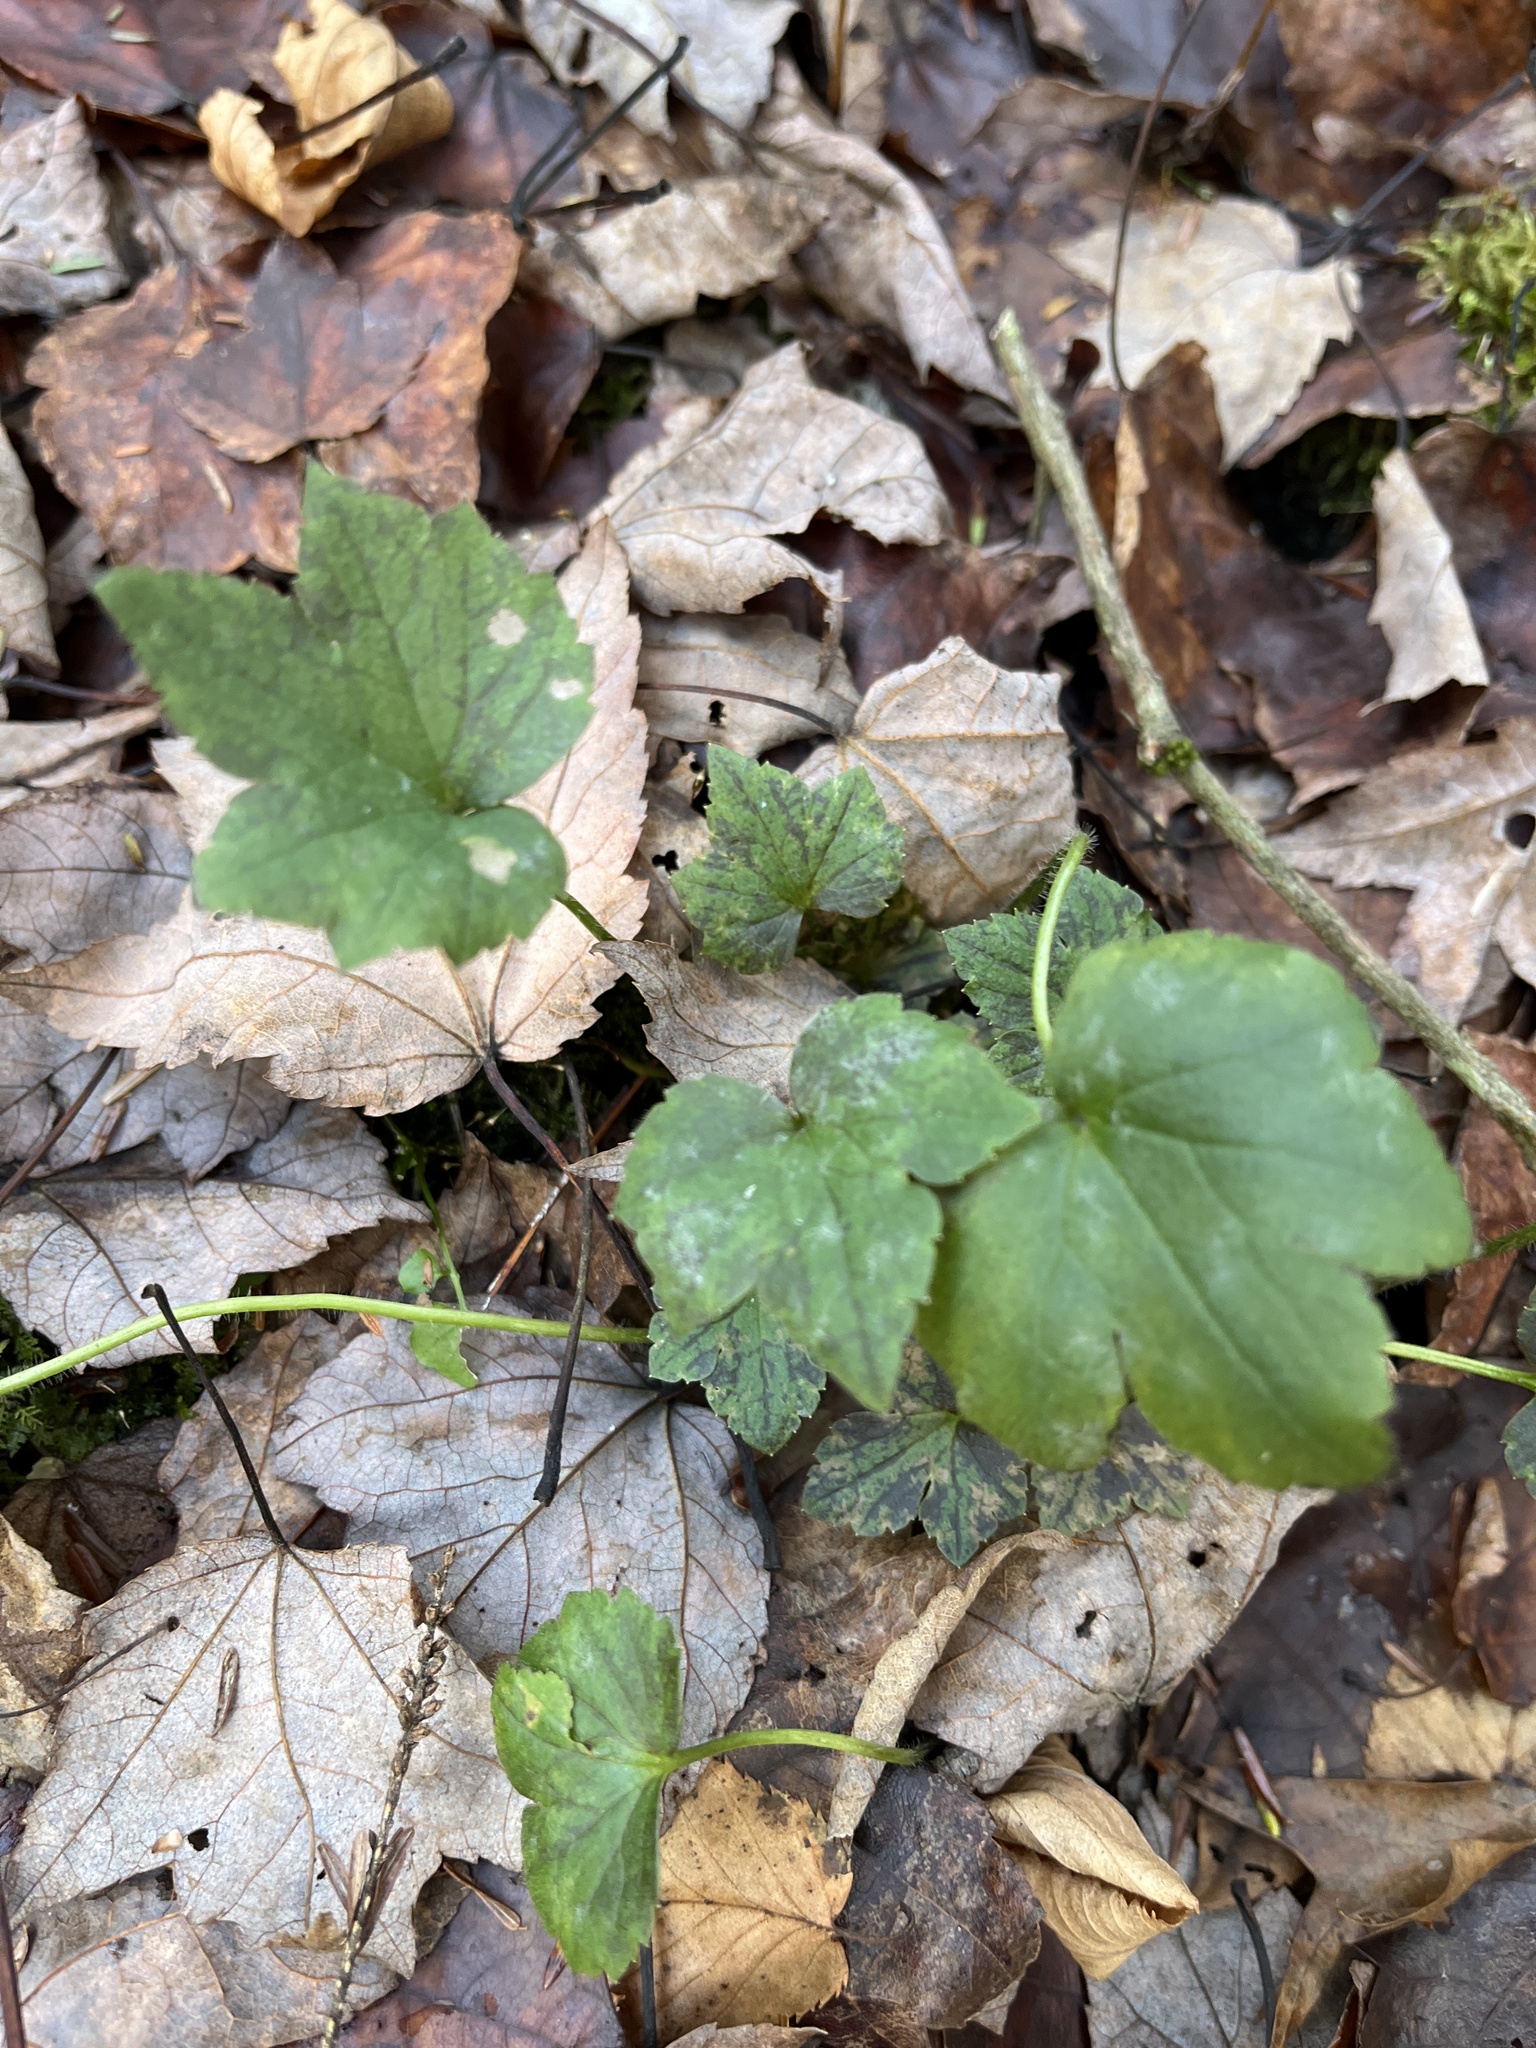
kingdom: Plantae
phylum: Tracheophyta
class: Magnoliopsida
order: Ranunculales
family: Ranunculaceae
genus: Ranunculus
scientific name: Ranunculus recurvatus
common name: Blisterwort
